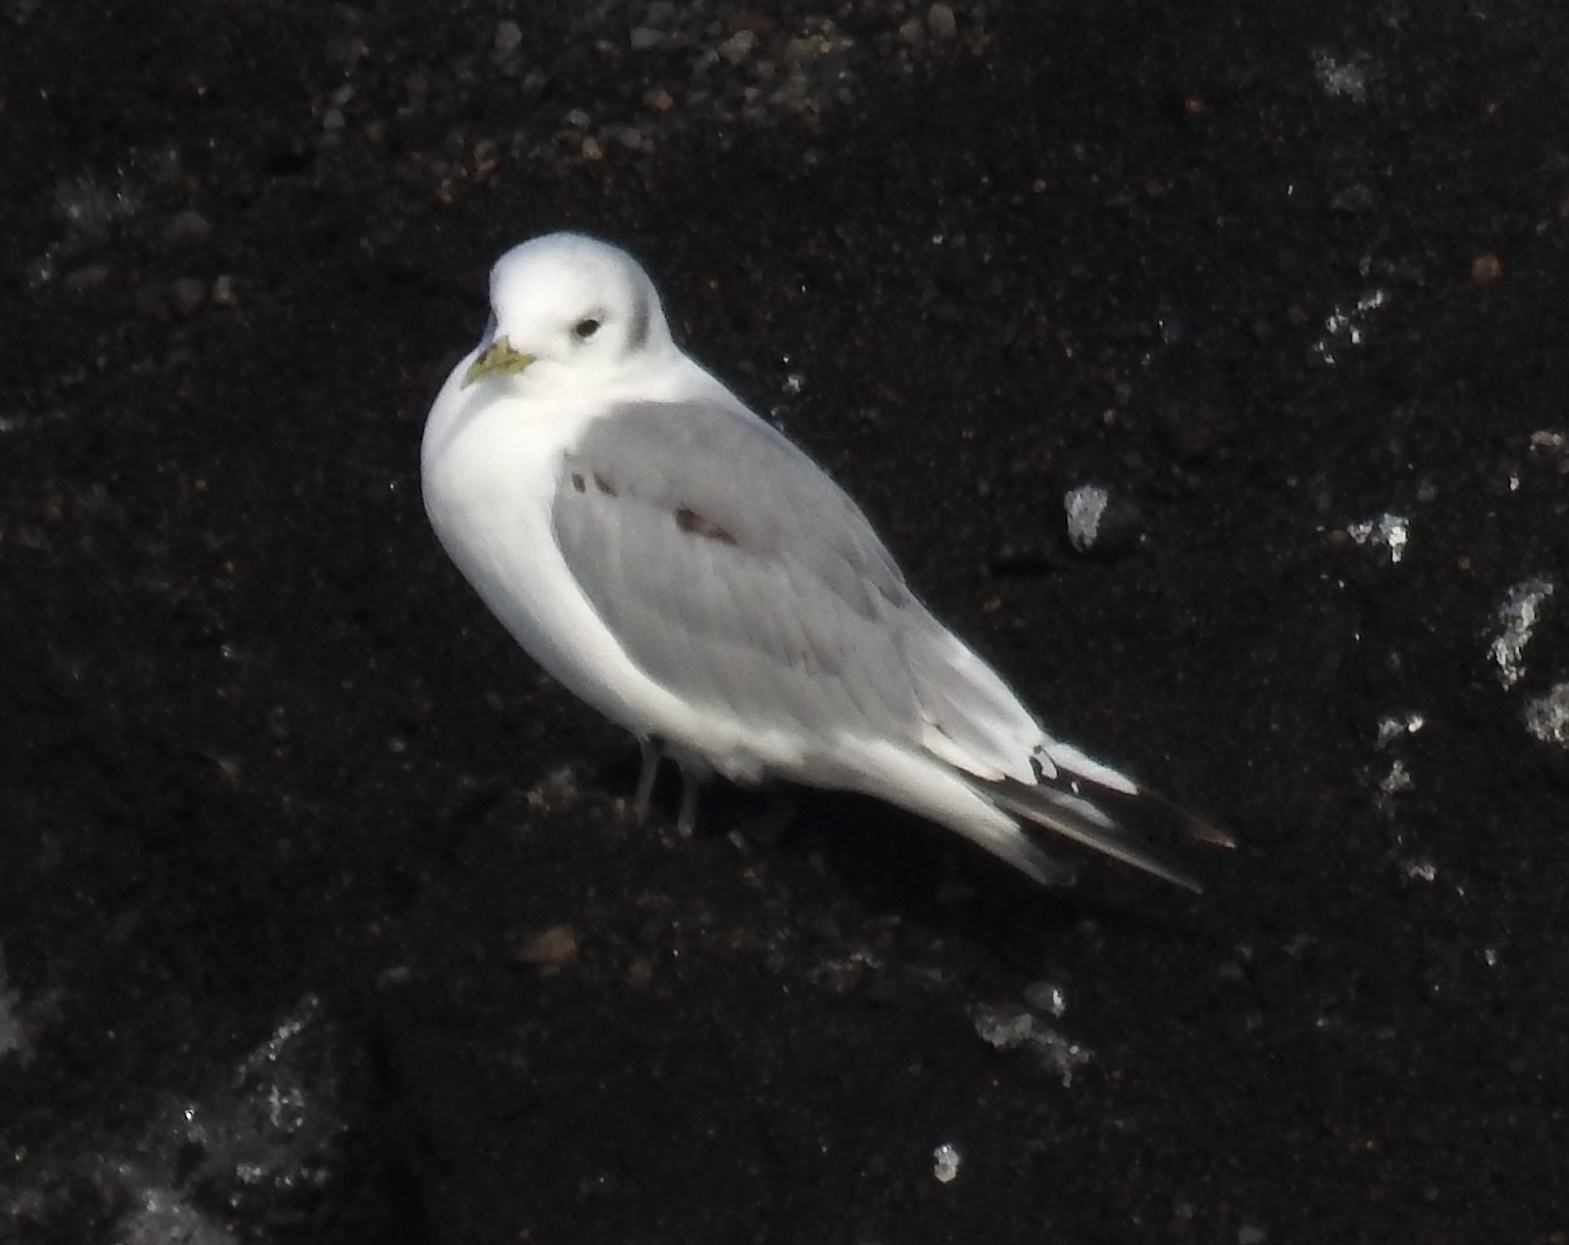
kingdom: Animalia
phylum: Chordata
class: Aves
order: Charadriiformes
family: Laridae
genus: Rissa
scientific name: Rissa tridactyla
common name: Black-legged kittiwake
